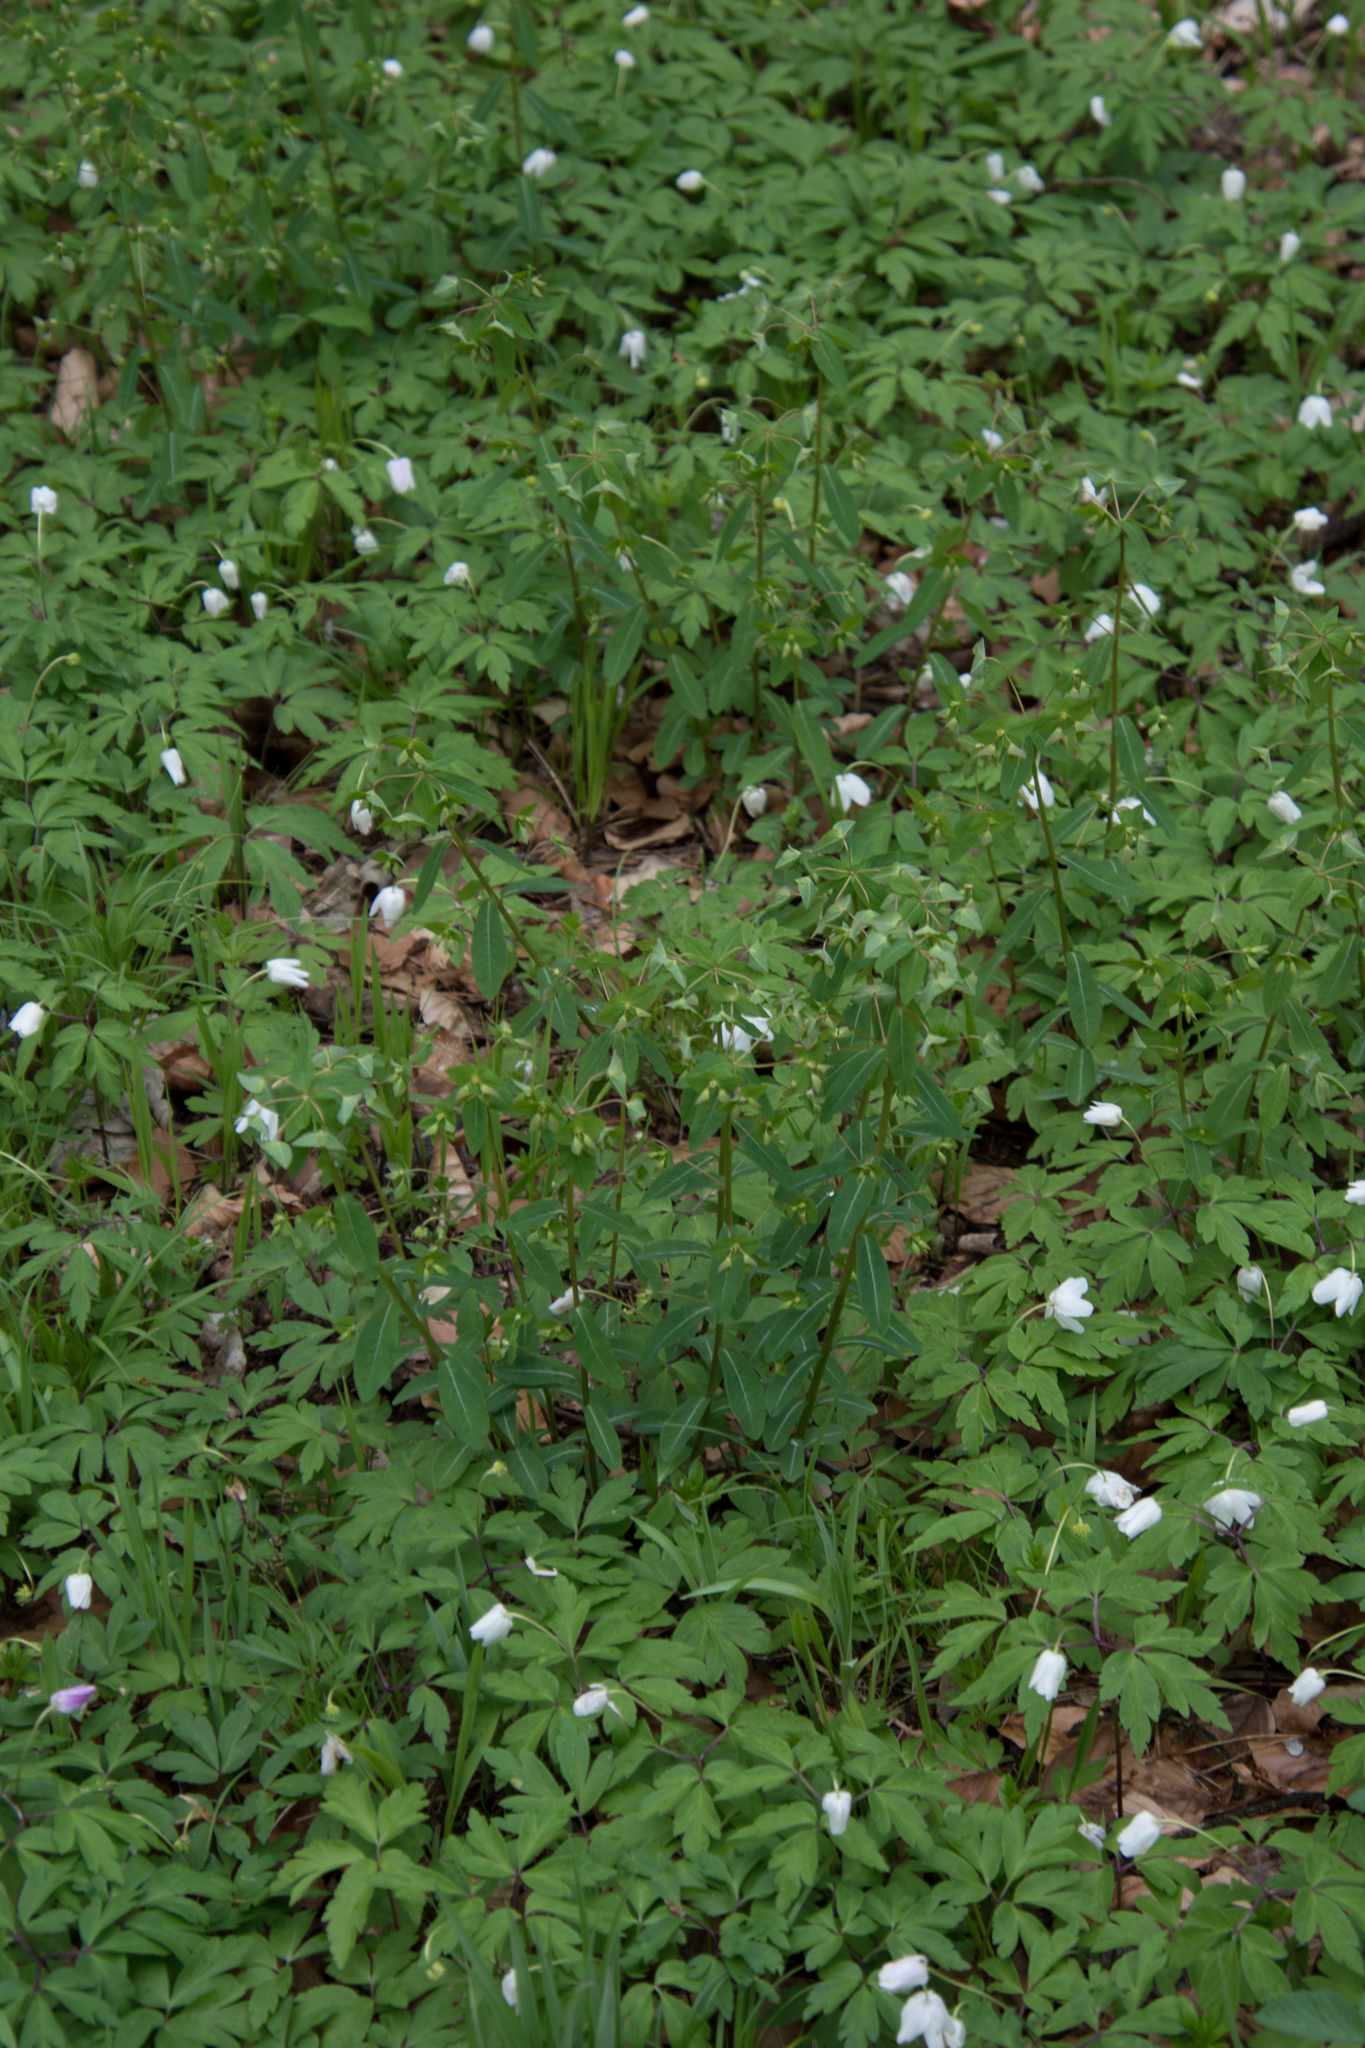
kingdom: Plantae
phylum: Tracheophyta
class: Magnoliopsida
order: Malpighiales
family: Euphorbiaceae
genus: Euphorbia
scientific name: Euphorbia dulcis
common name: Sweet spurge
